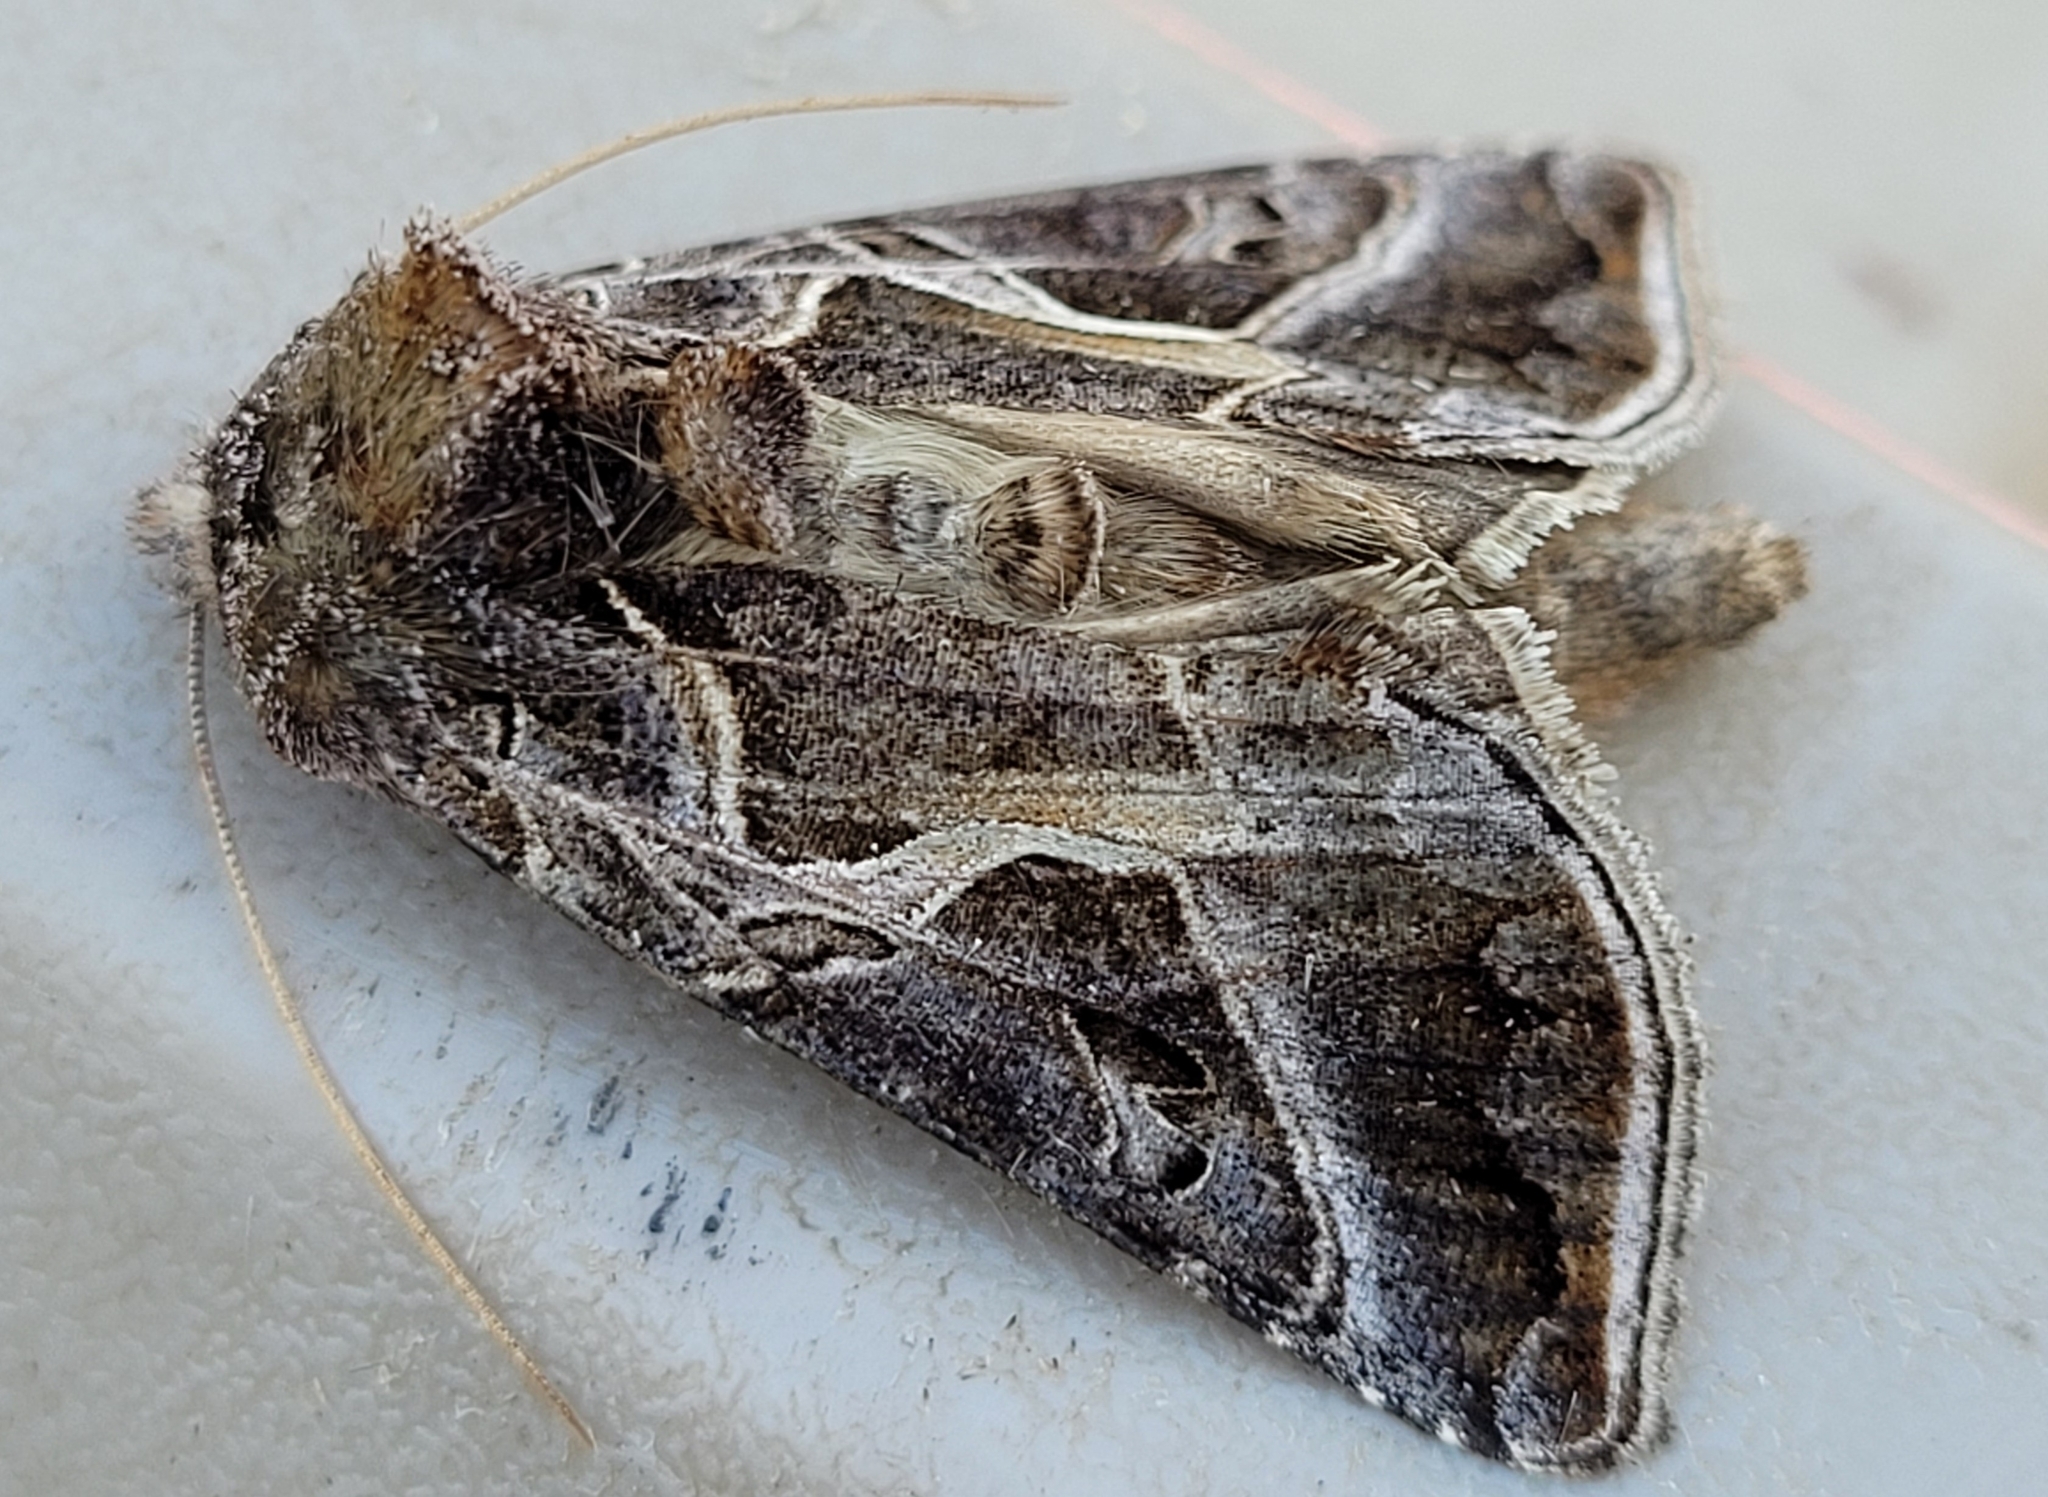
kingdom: Animalia
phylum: Arthropoda
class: Insecta
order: Lepidoptera
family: Noctuidae
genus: Autographa
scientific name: Autographa flagellum
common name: Silver whip moth
